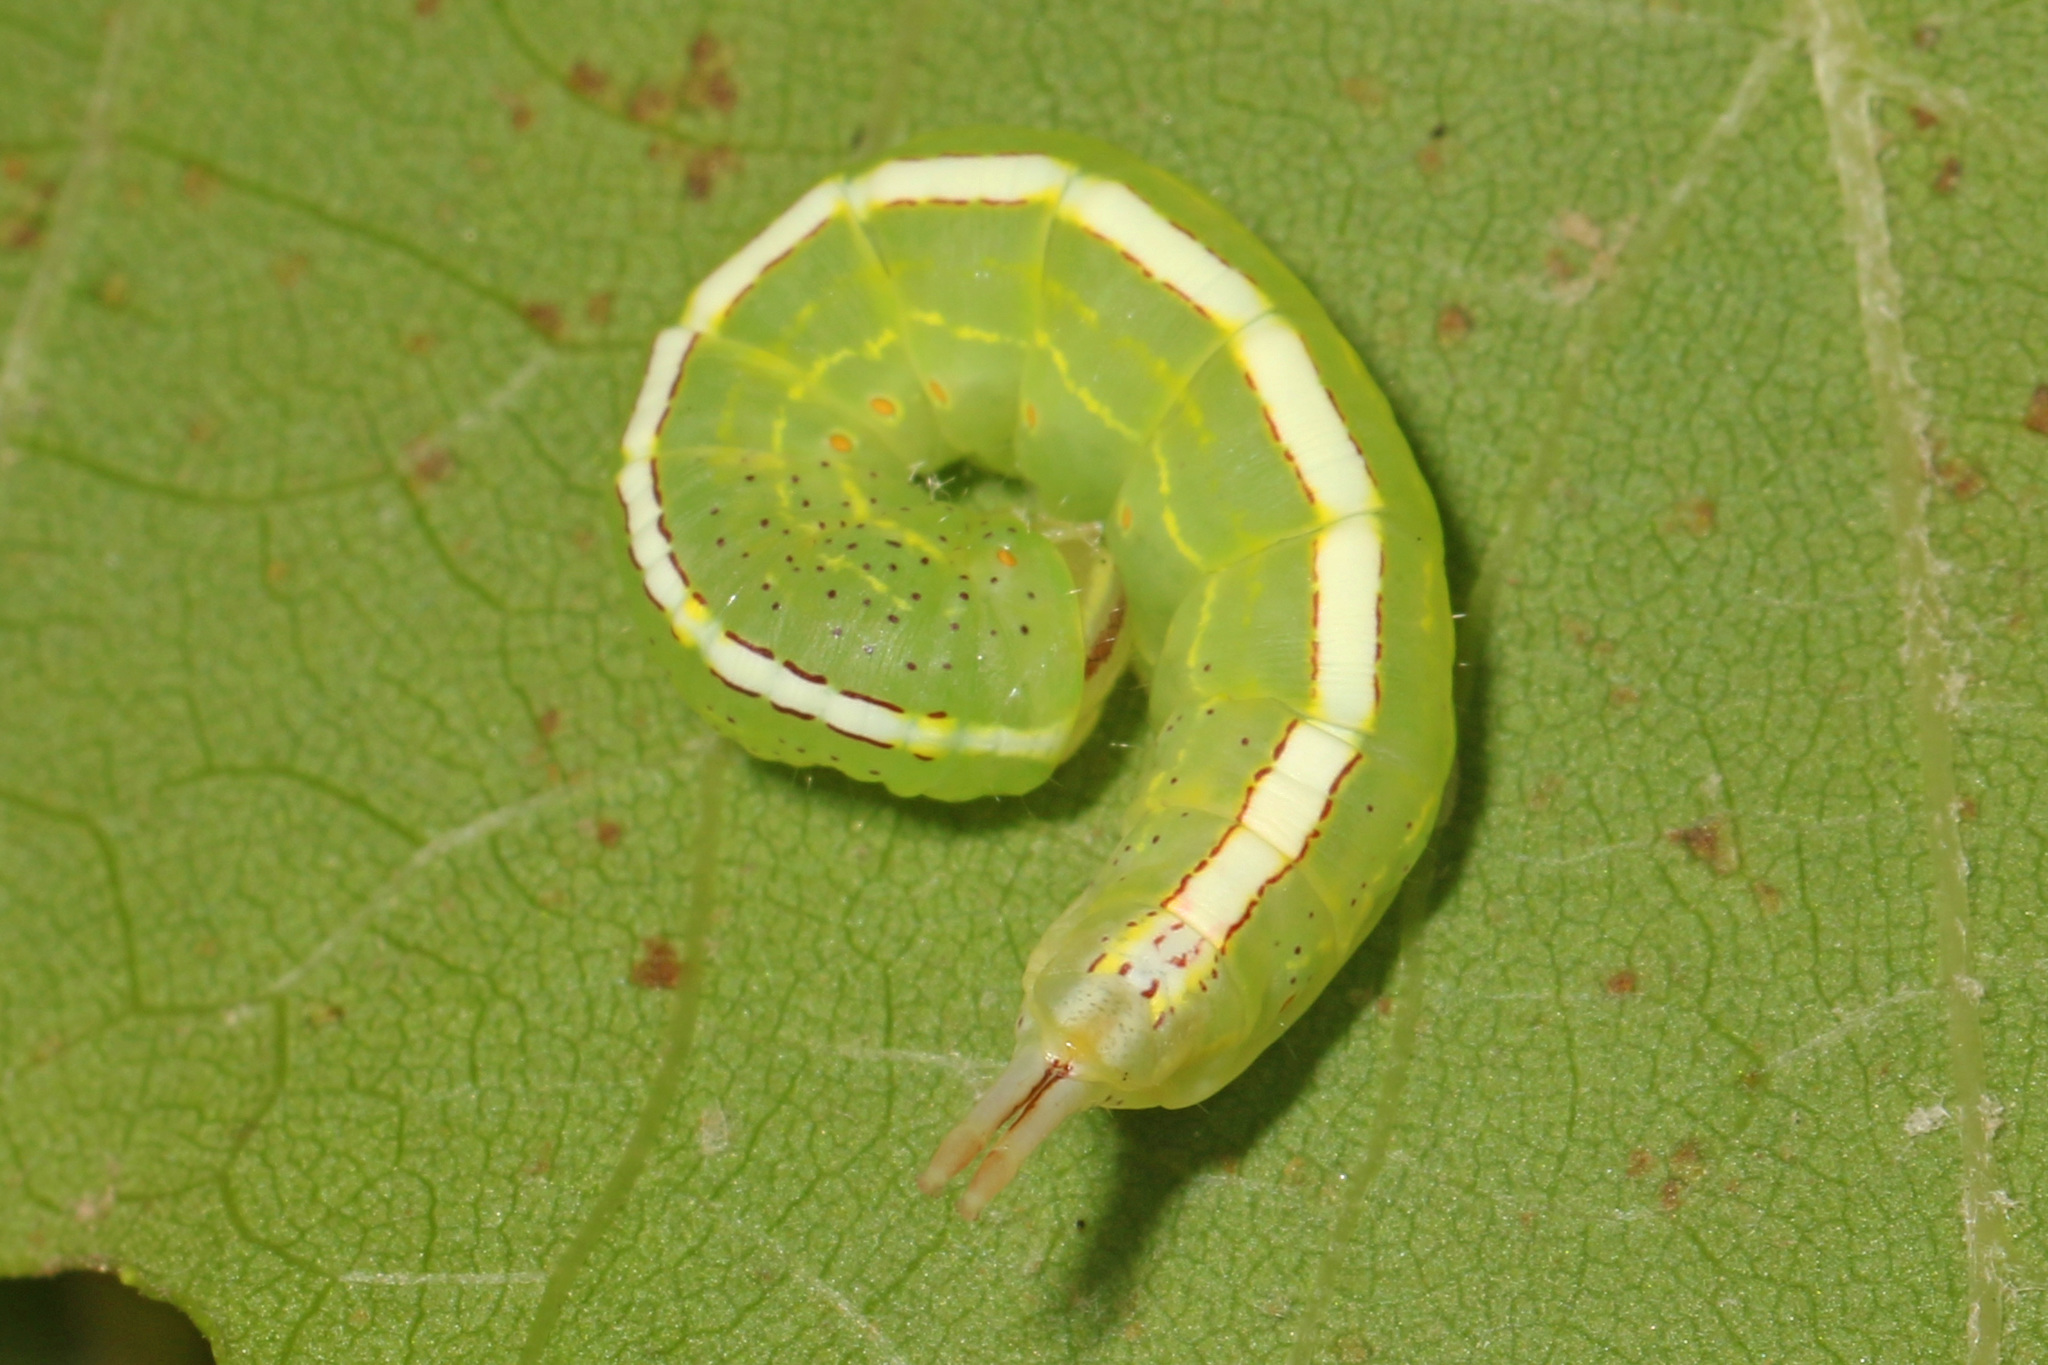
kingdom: Animalia
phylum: Arthropoda
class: Insecta
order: Lepidoptera
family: Notodontidae
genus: Misogada
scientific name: Misogada unicolor
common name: Drab prominent
